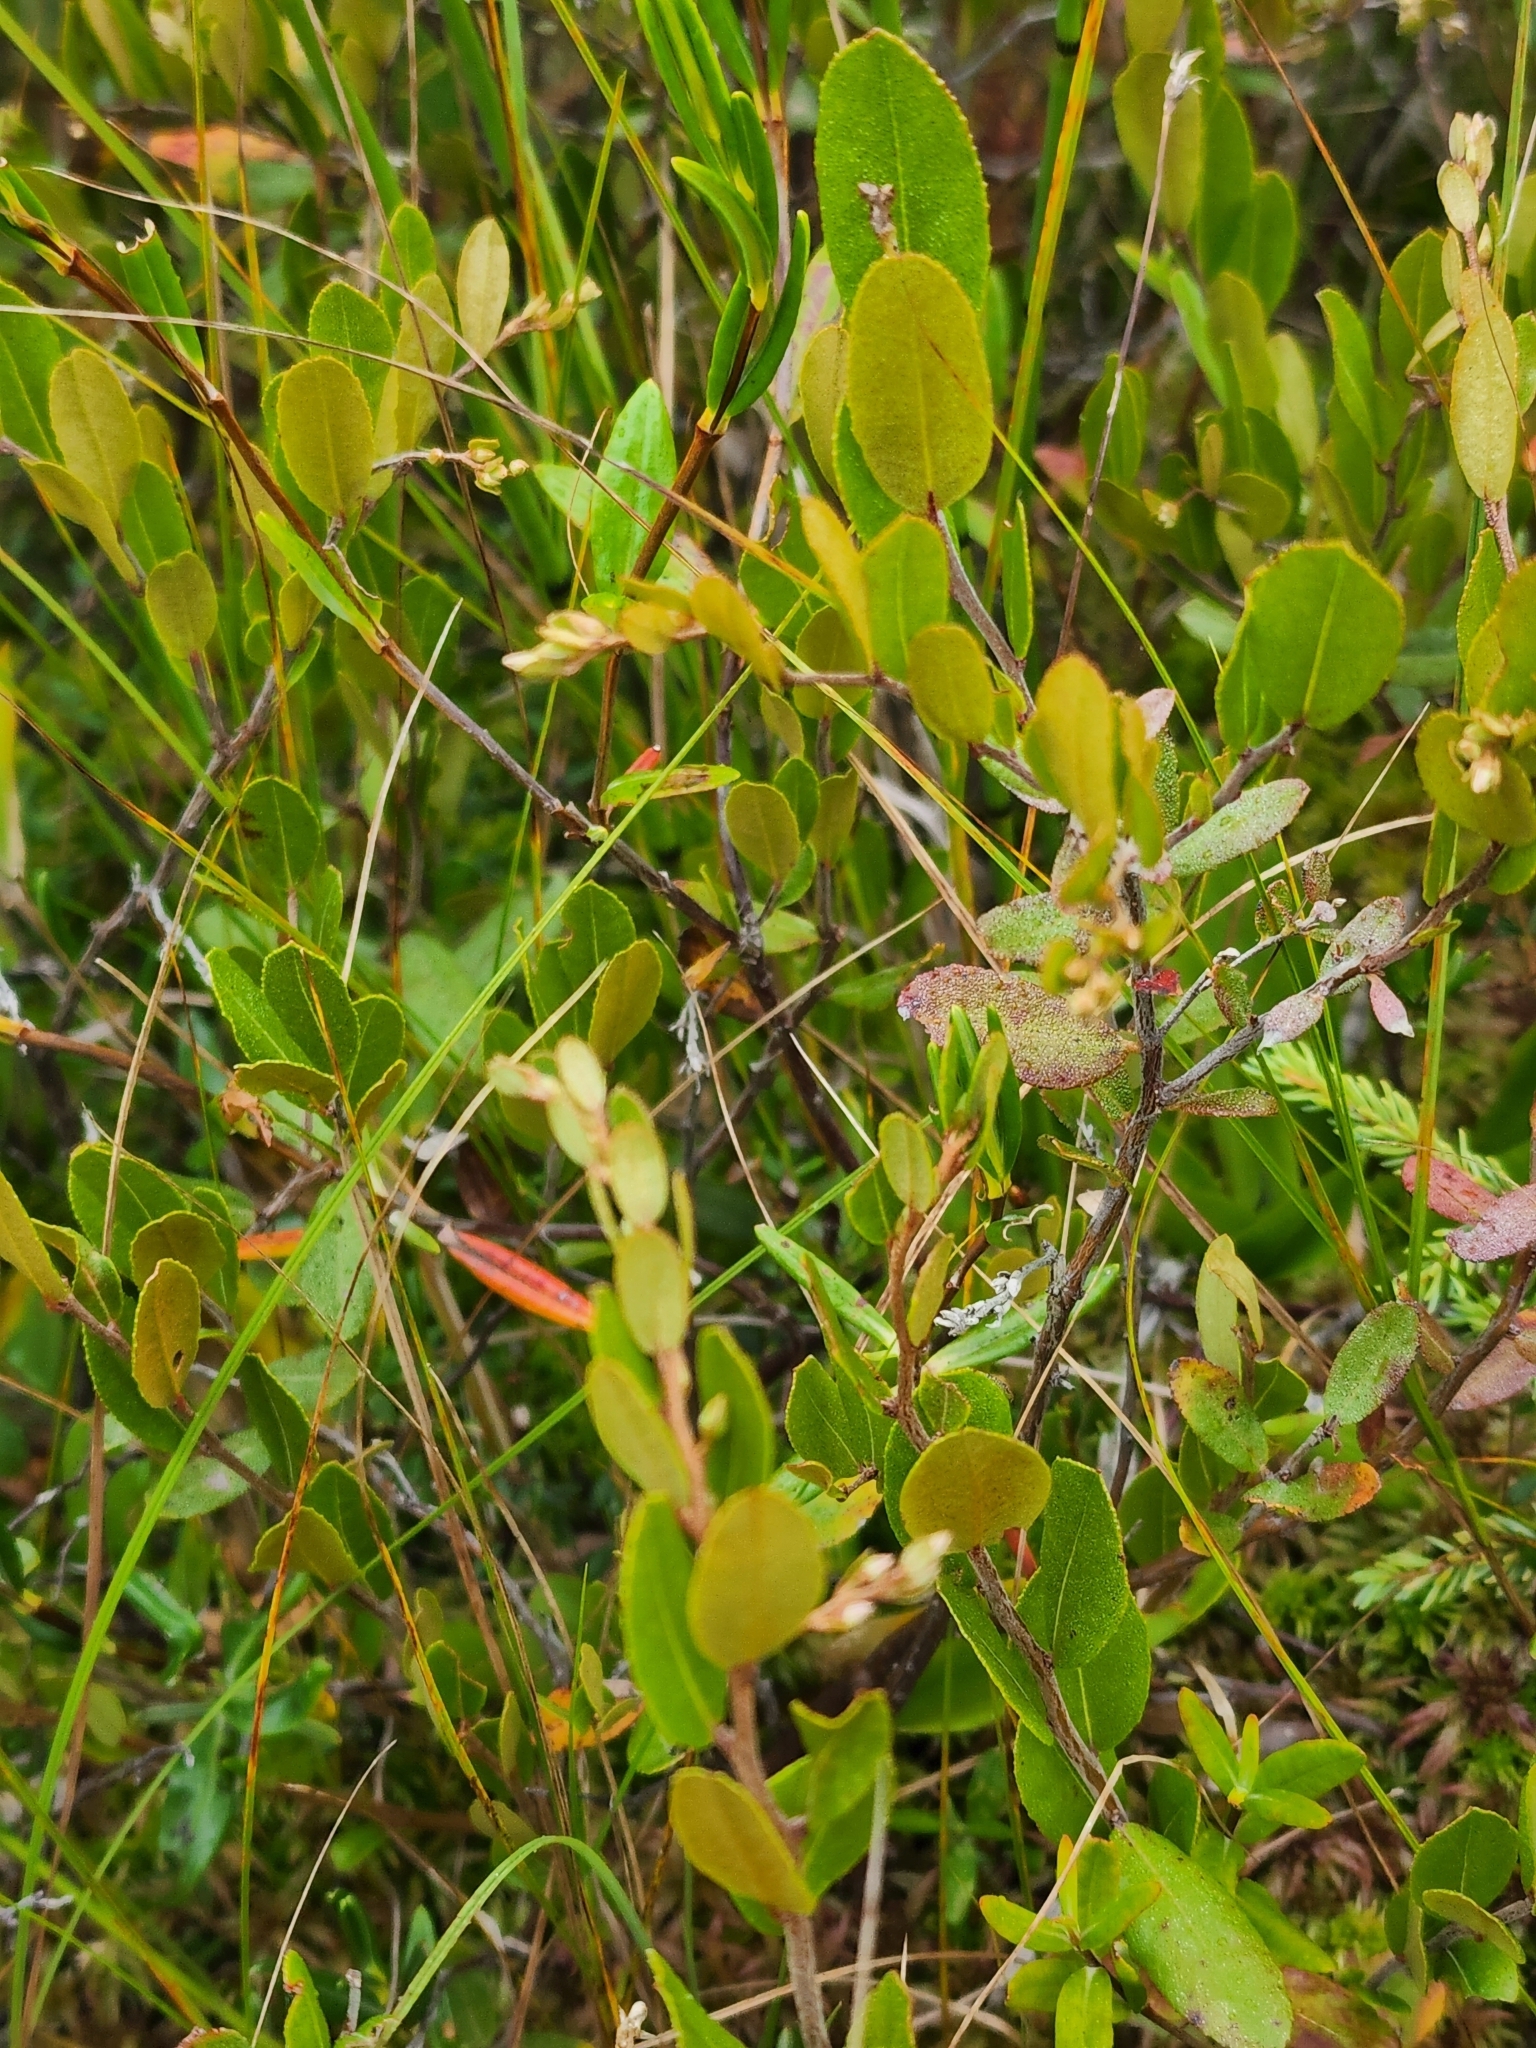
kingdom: Plantae
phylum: Tracheophyta
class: Magnoliopsida
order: Ericales
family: Ericaceae
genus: Chamaedaphne
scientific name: Chamaedaphne calyculata
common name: Leatherleaf
